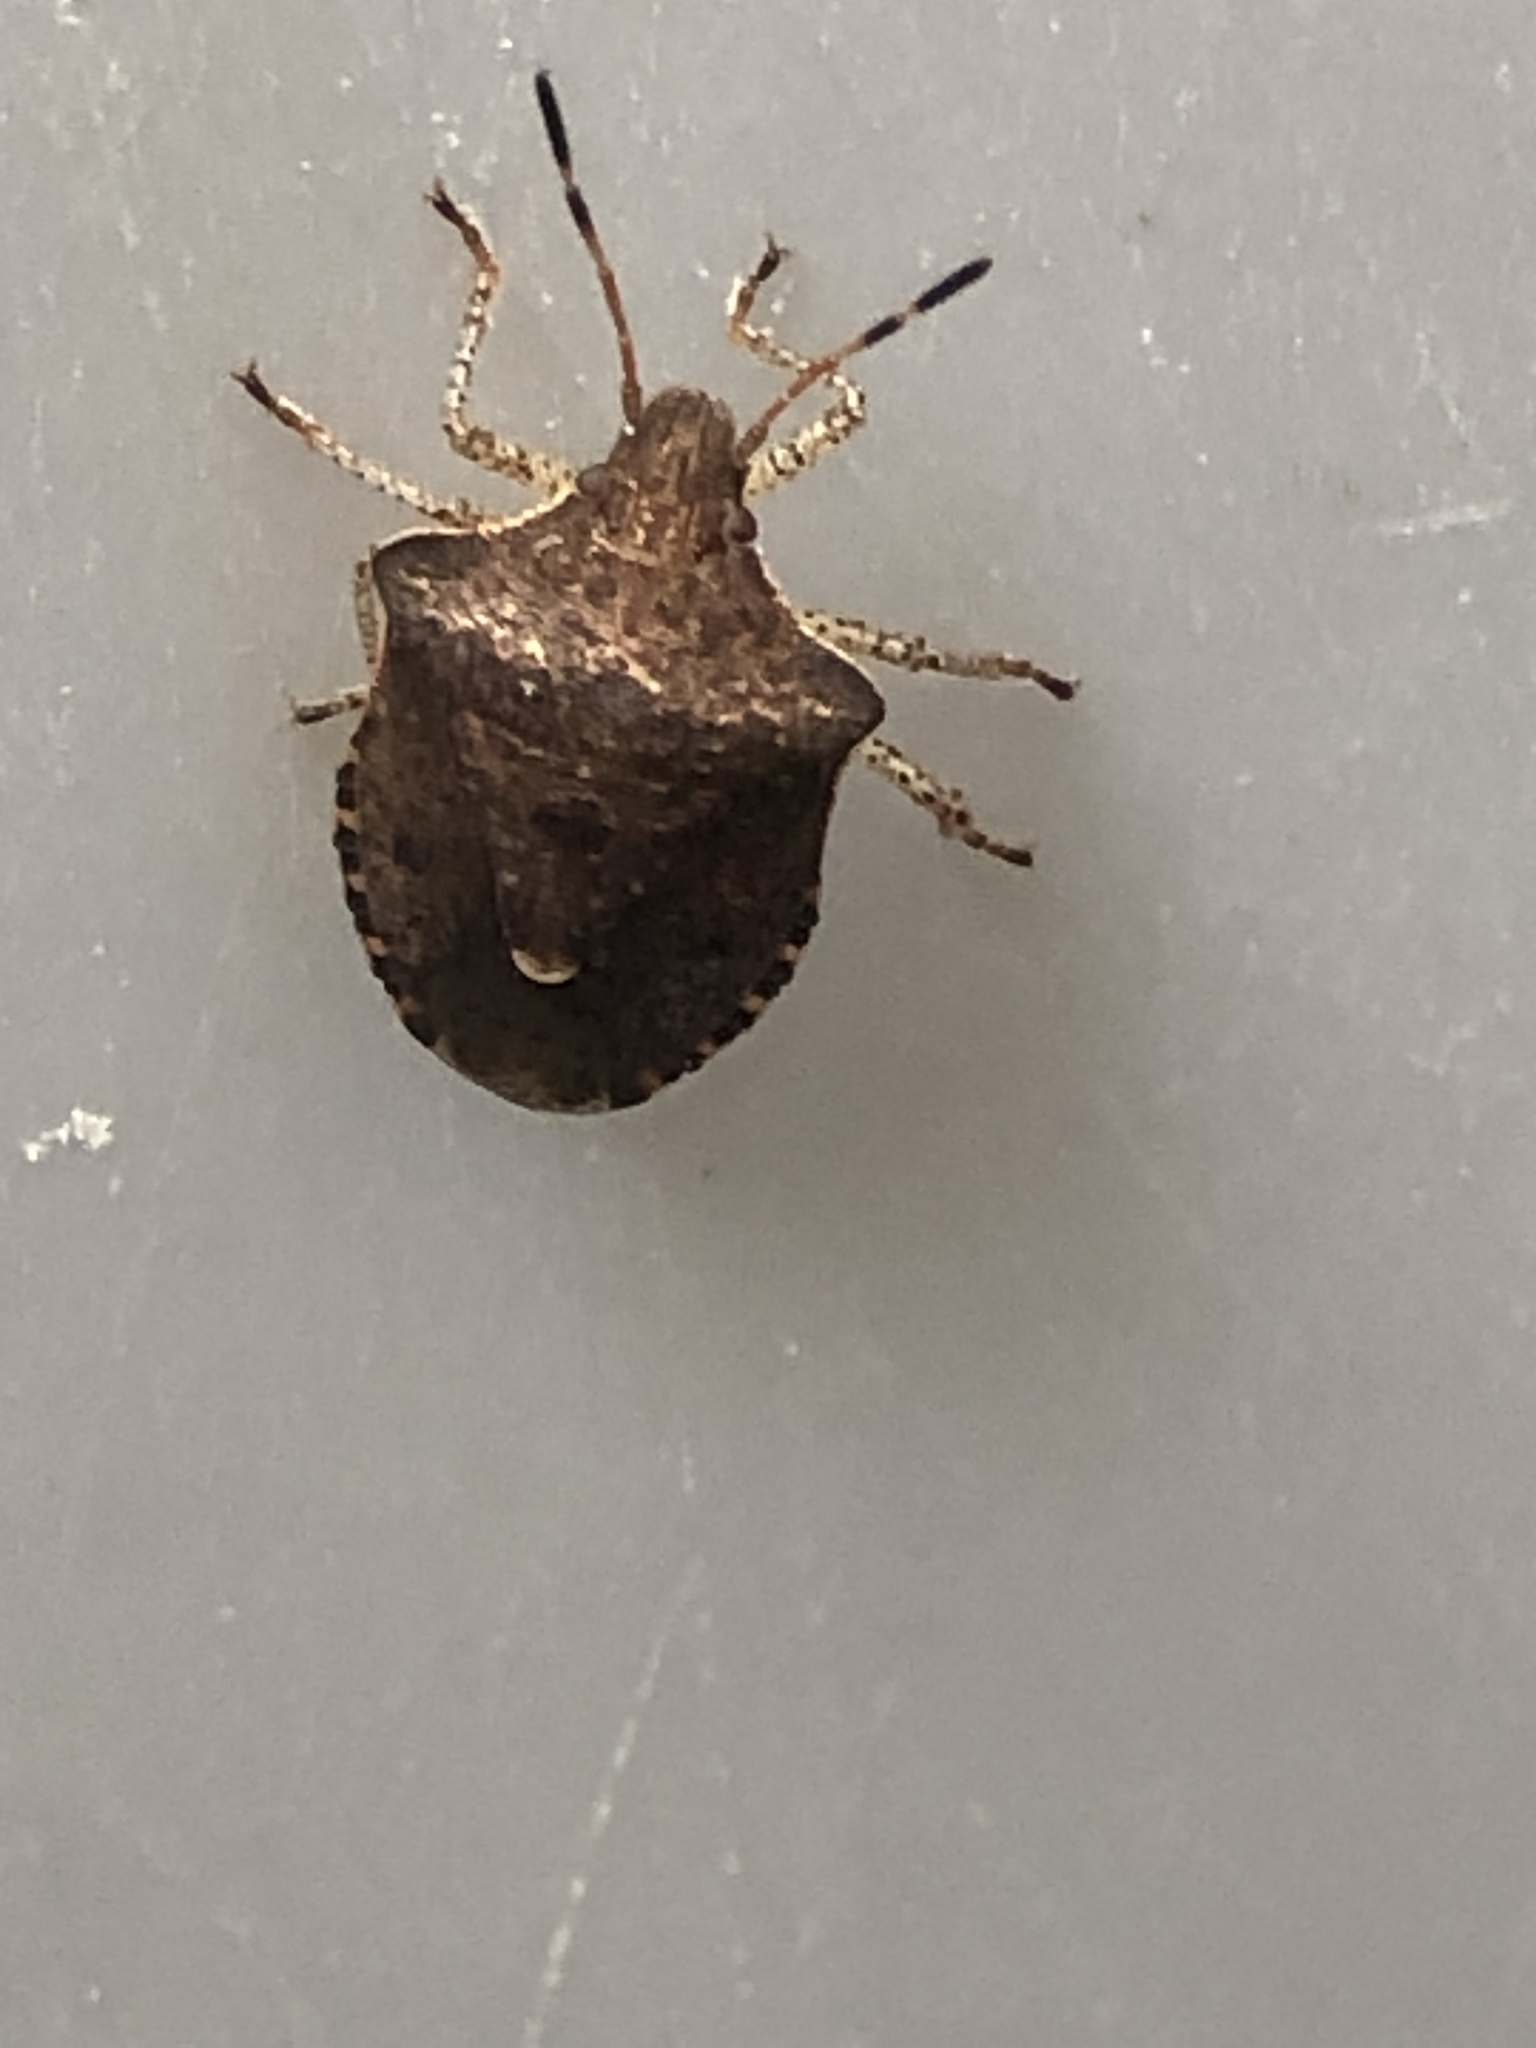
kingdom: Animalia
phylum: Arthropoda
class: Insecta
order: Hemiptera
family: Pentatomidae
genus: Euschistus
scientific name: Euschistus tristigmus
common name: Dusky stink bug
